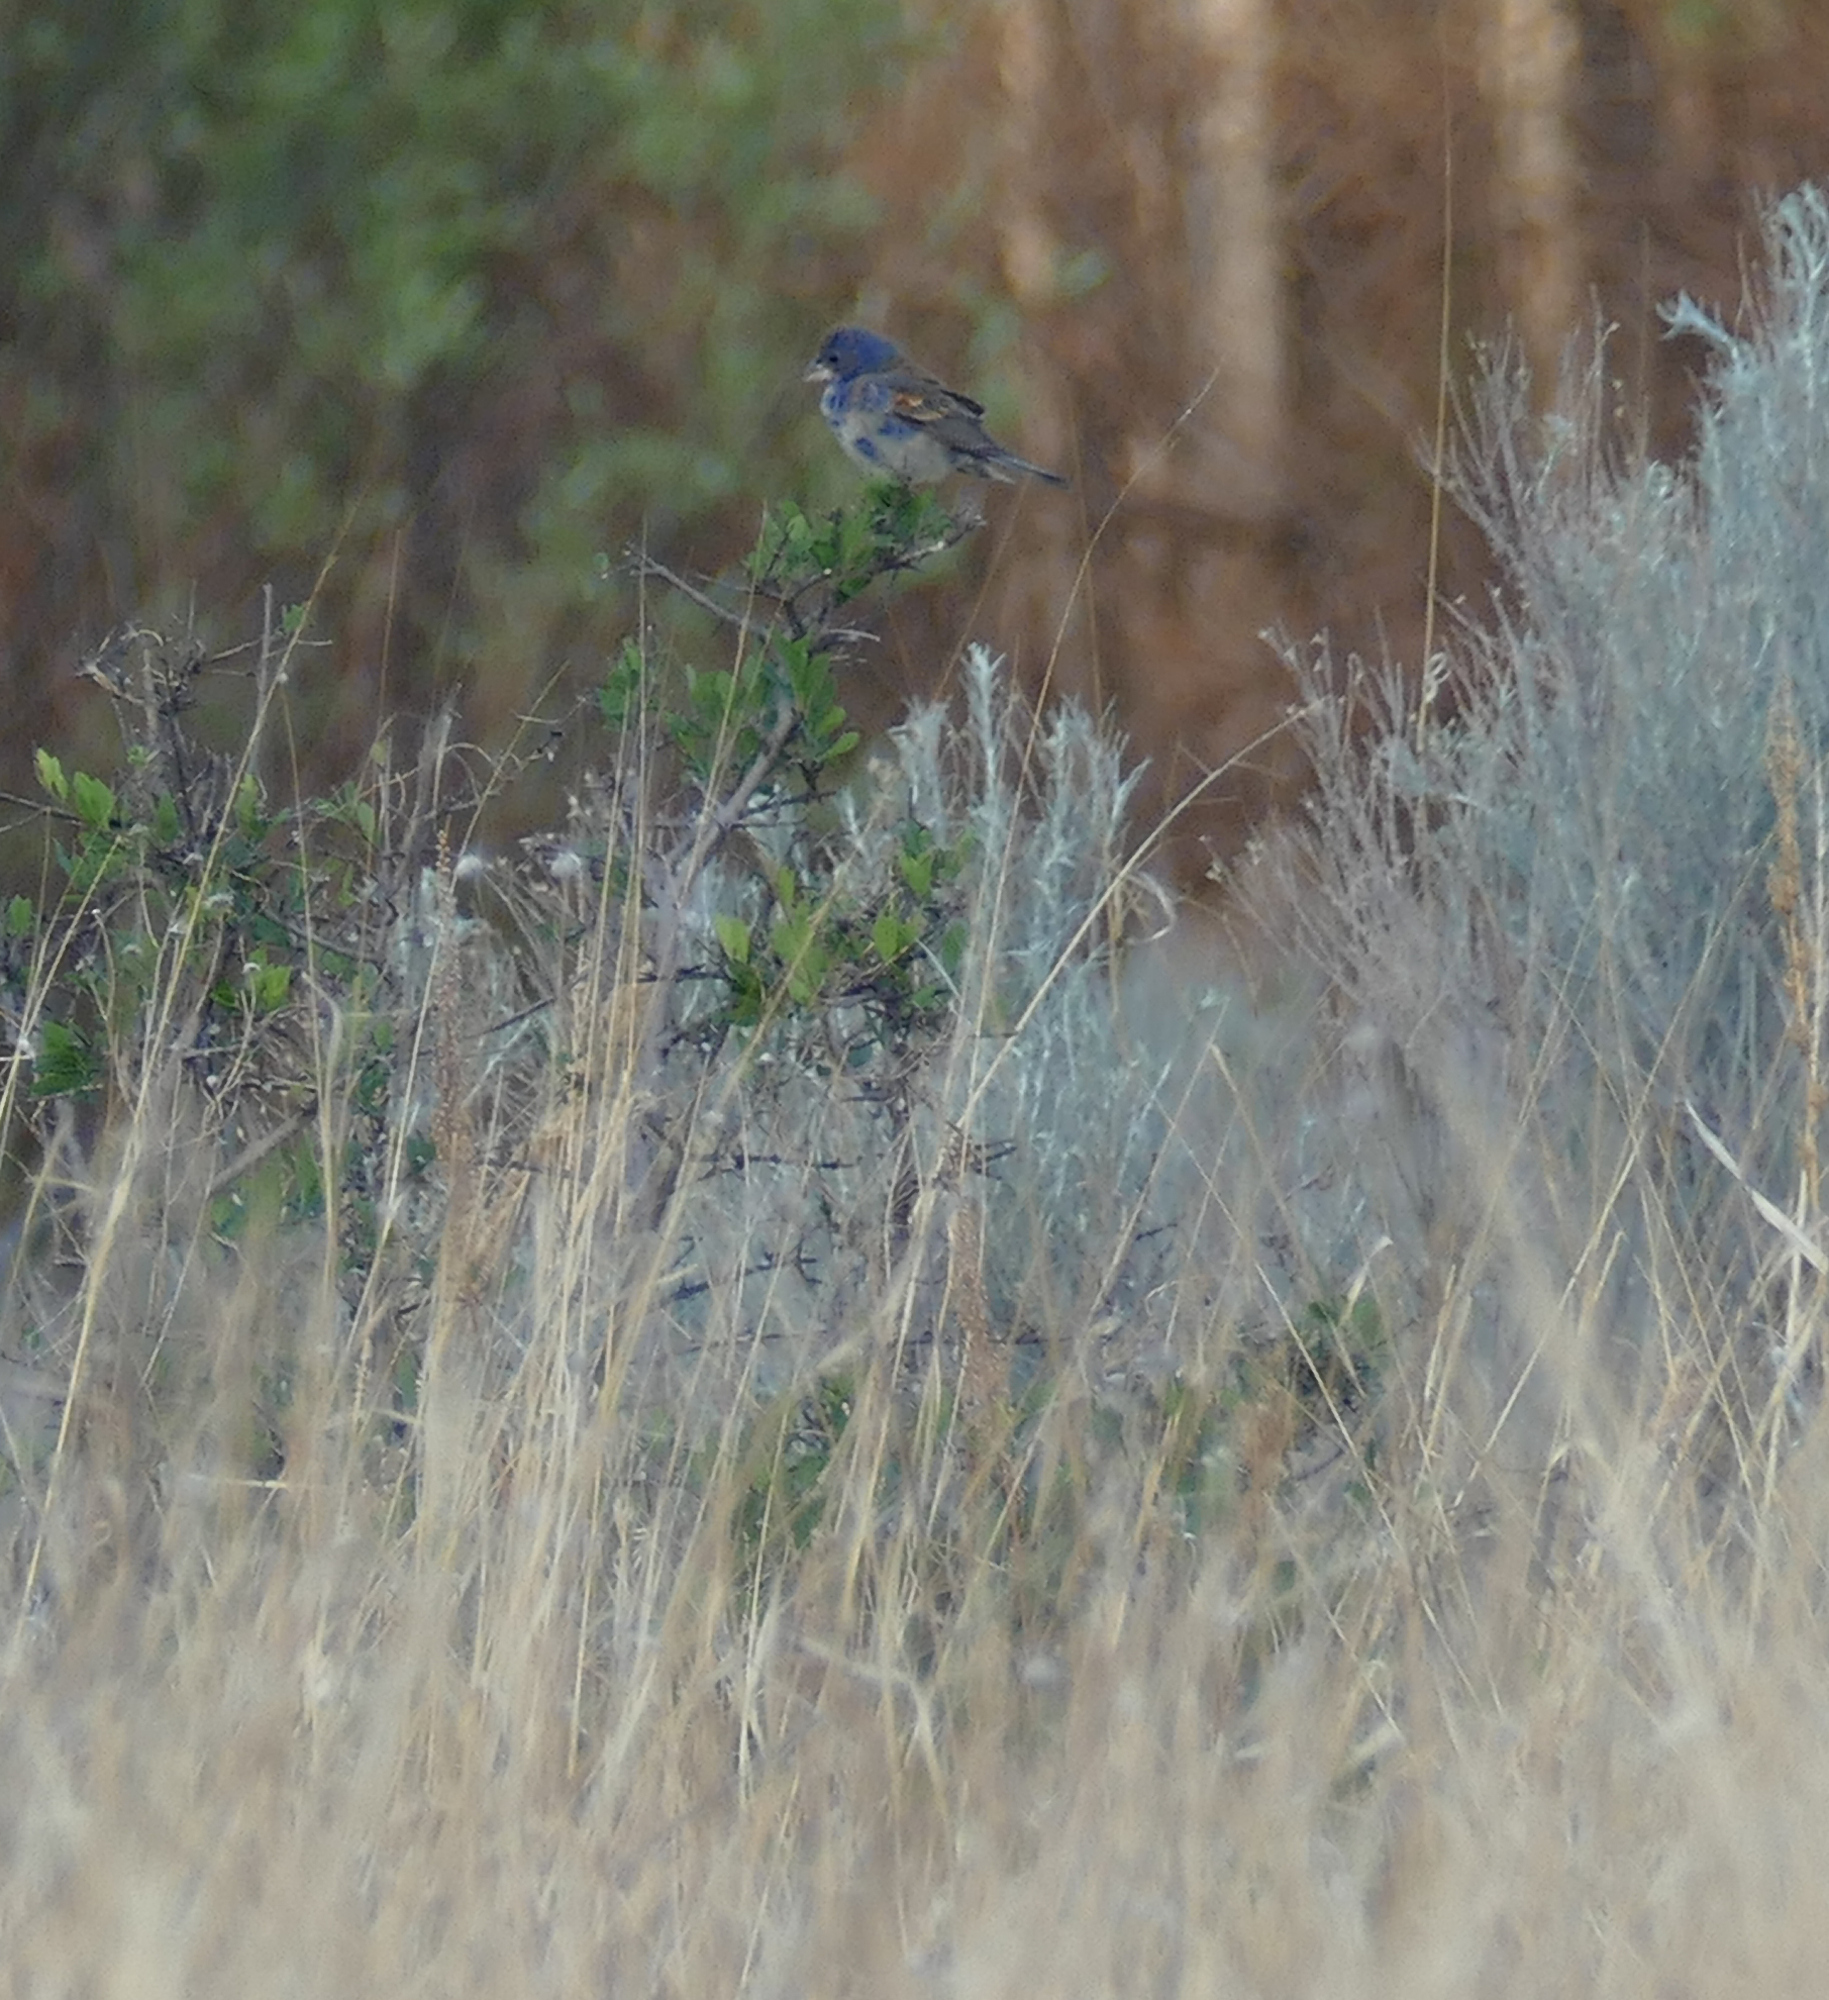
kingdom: Animalia
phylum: Chordata
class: Aves
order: Passeriformes
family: Cardinalidae
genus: Passerina
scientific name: Passerina caerulea
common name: Blue grosbeak
